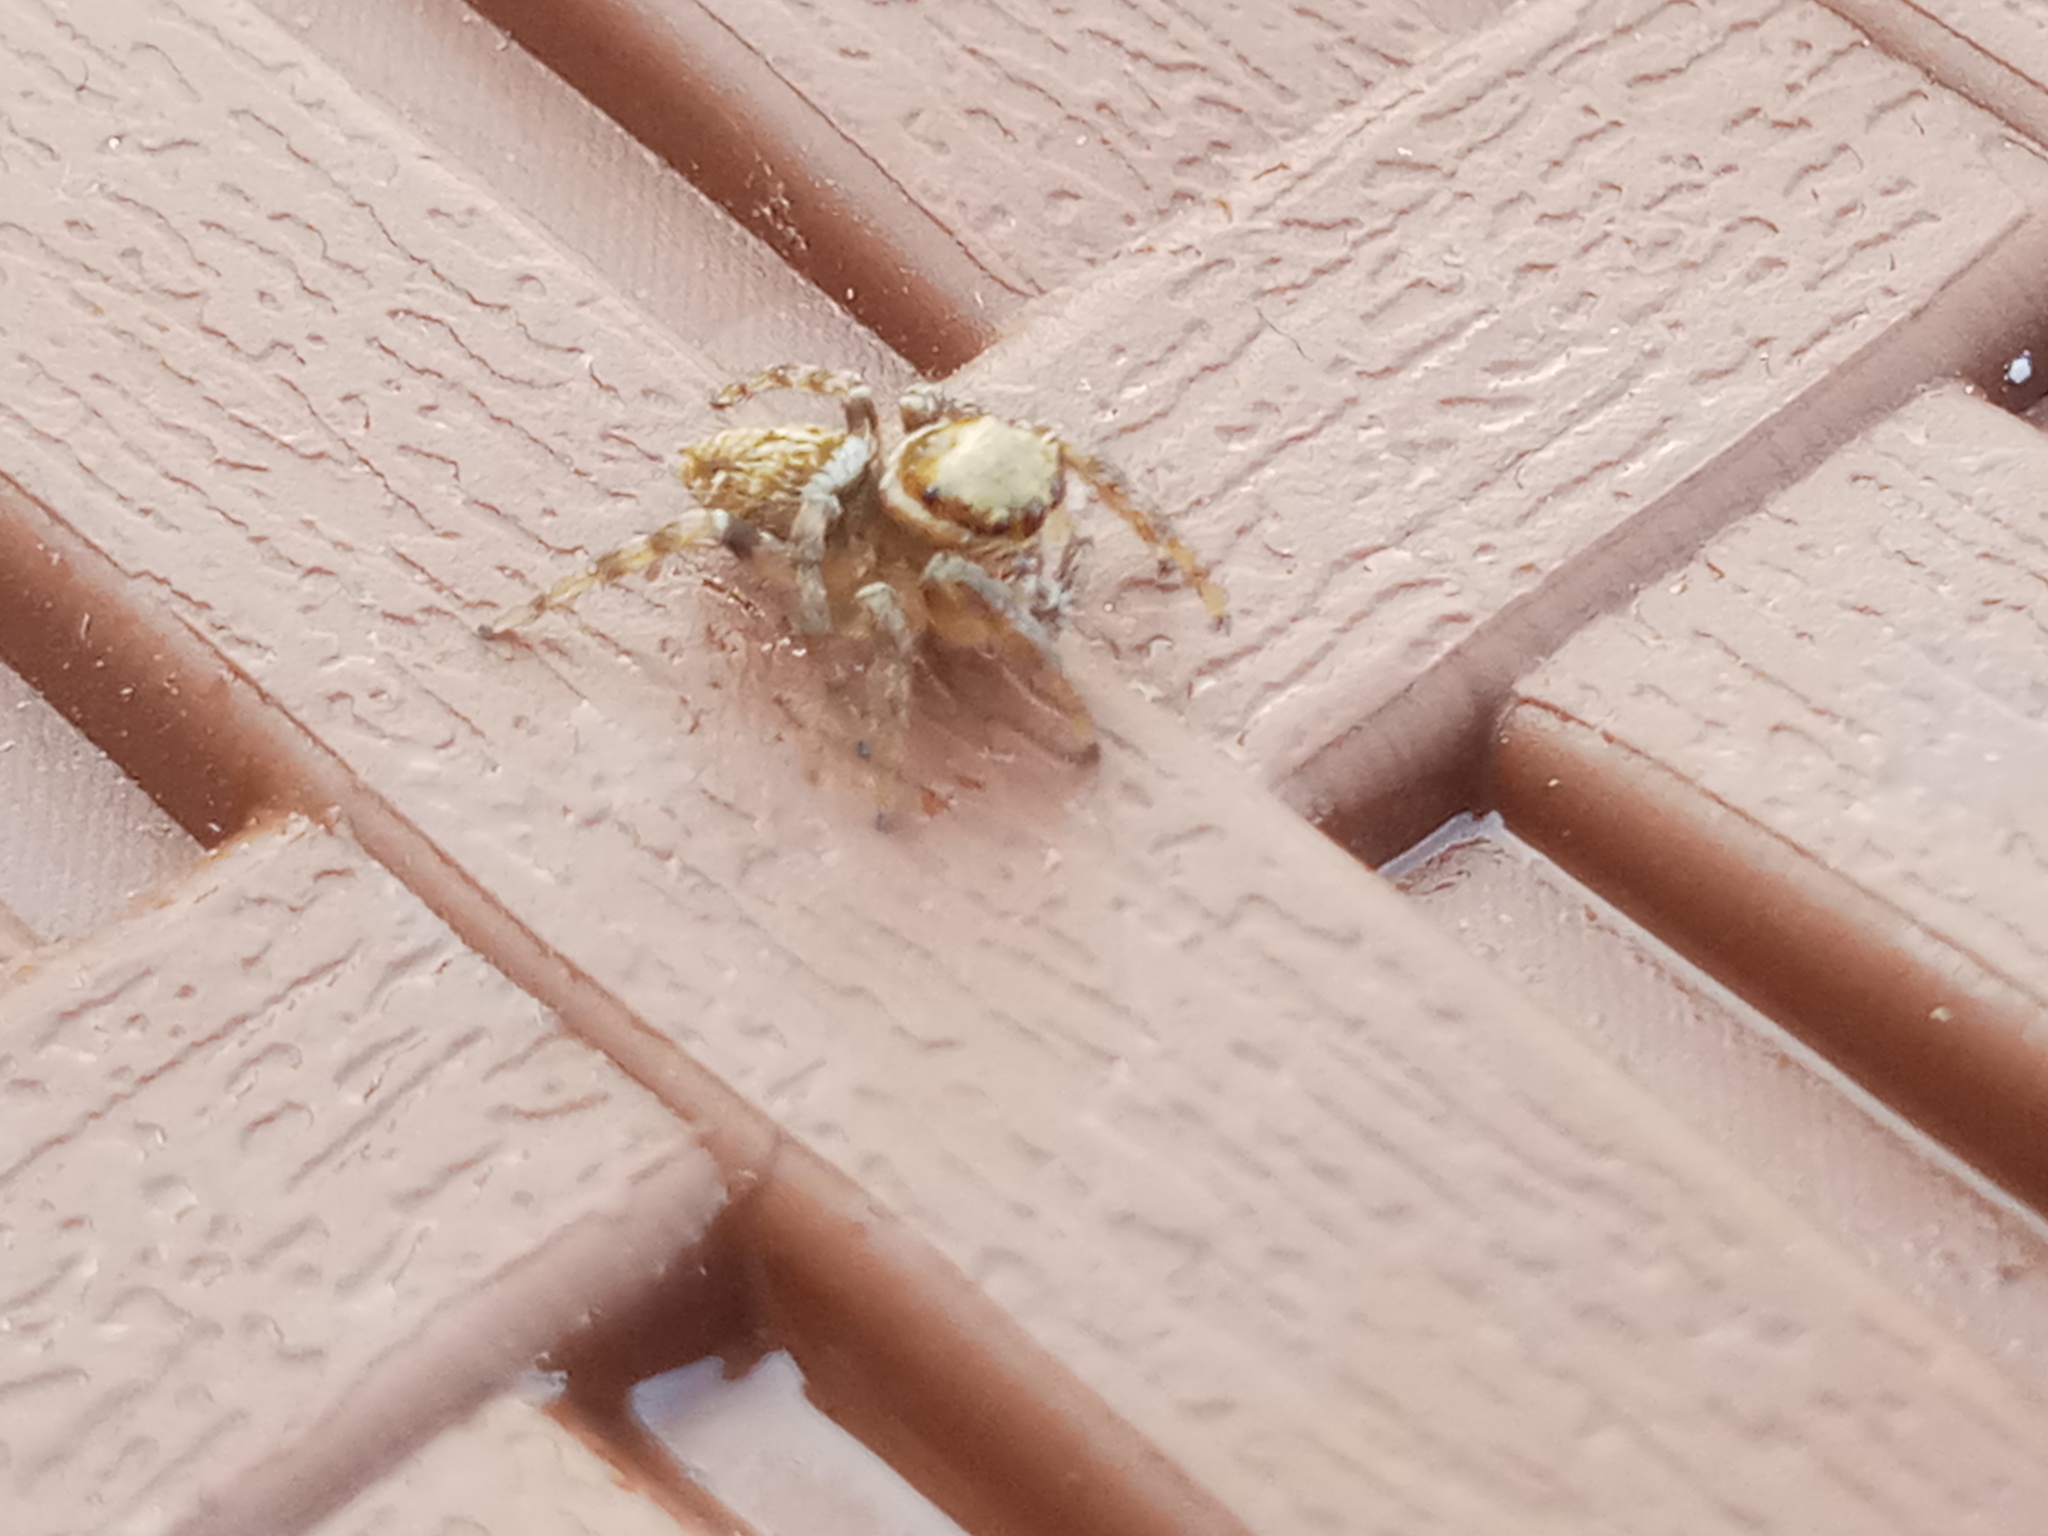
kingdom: Animalia
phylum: Arthropoda
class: Arachnida
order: Araneae
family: Salticidae
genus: Evarcha
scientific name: Evarcha jucunda
